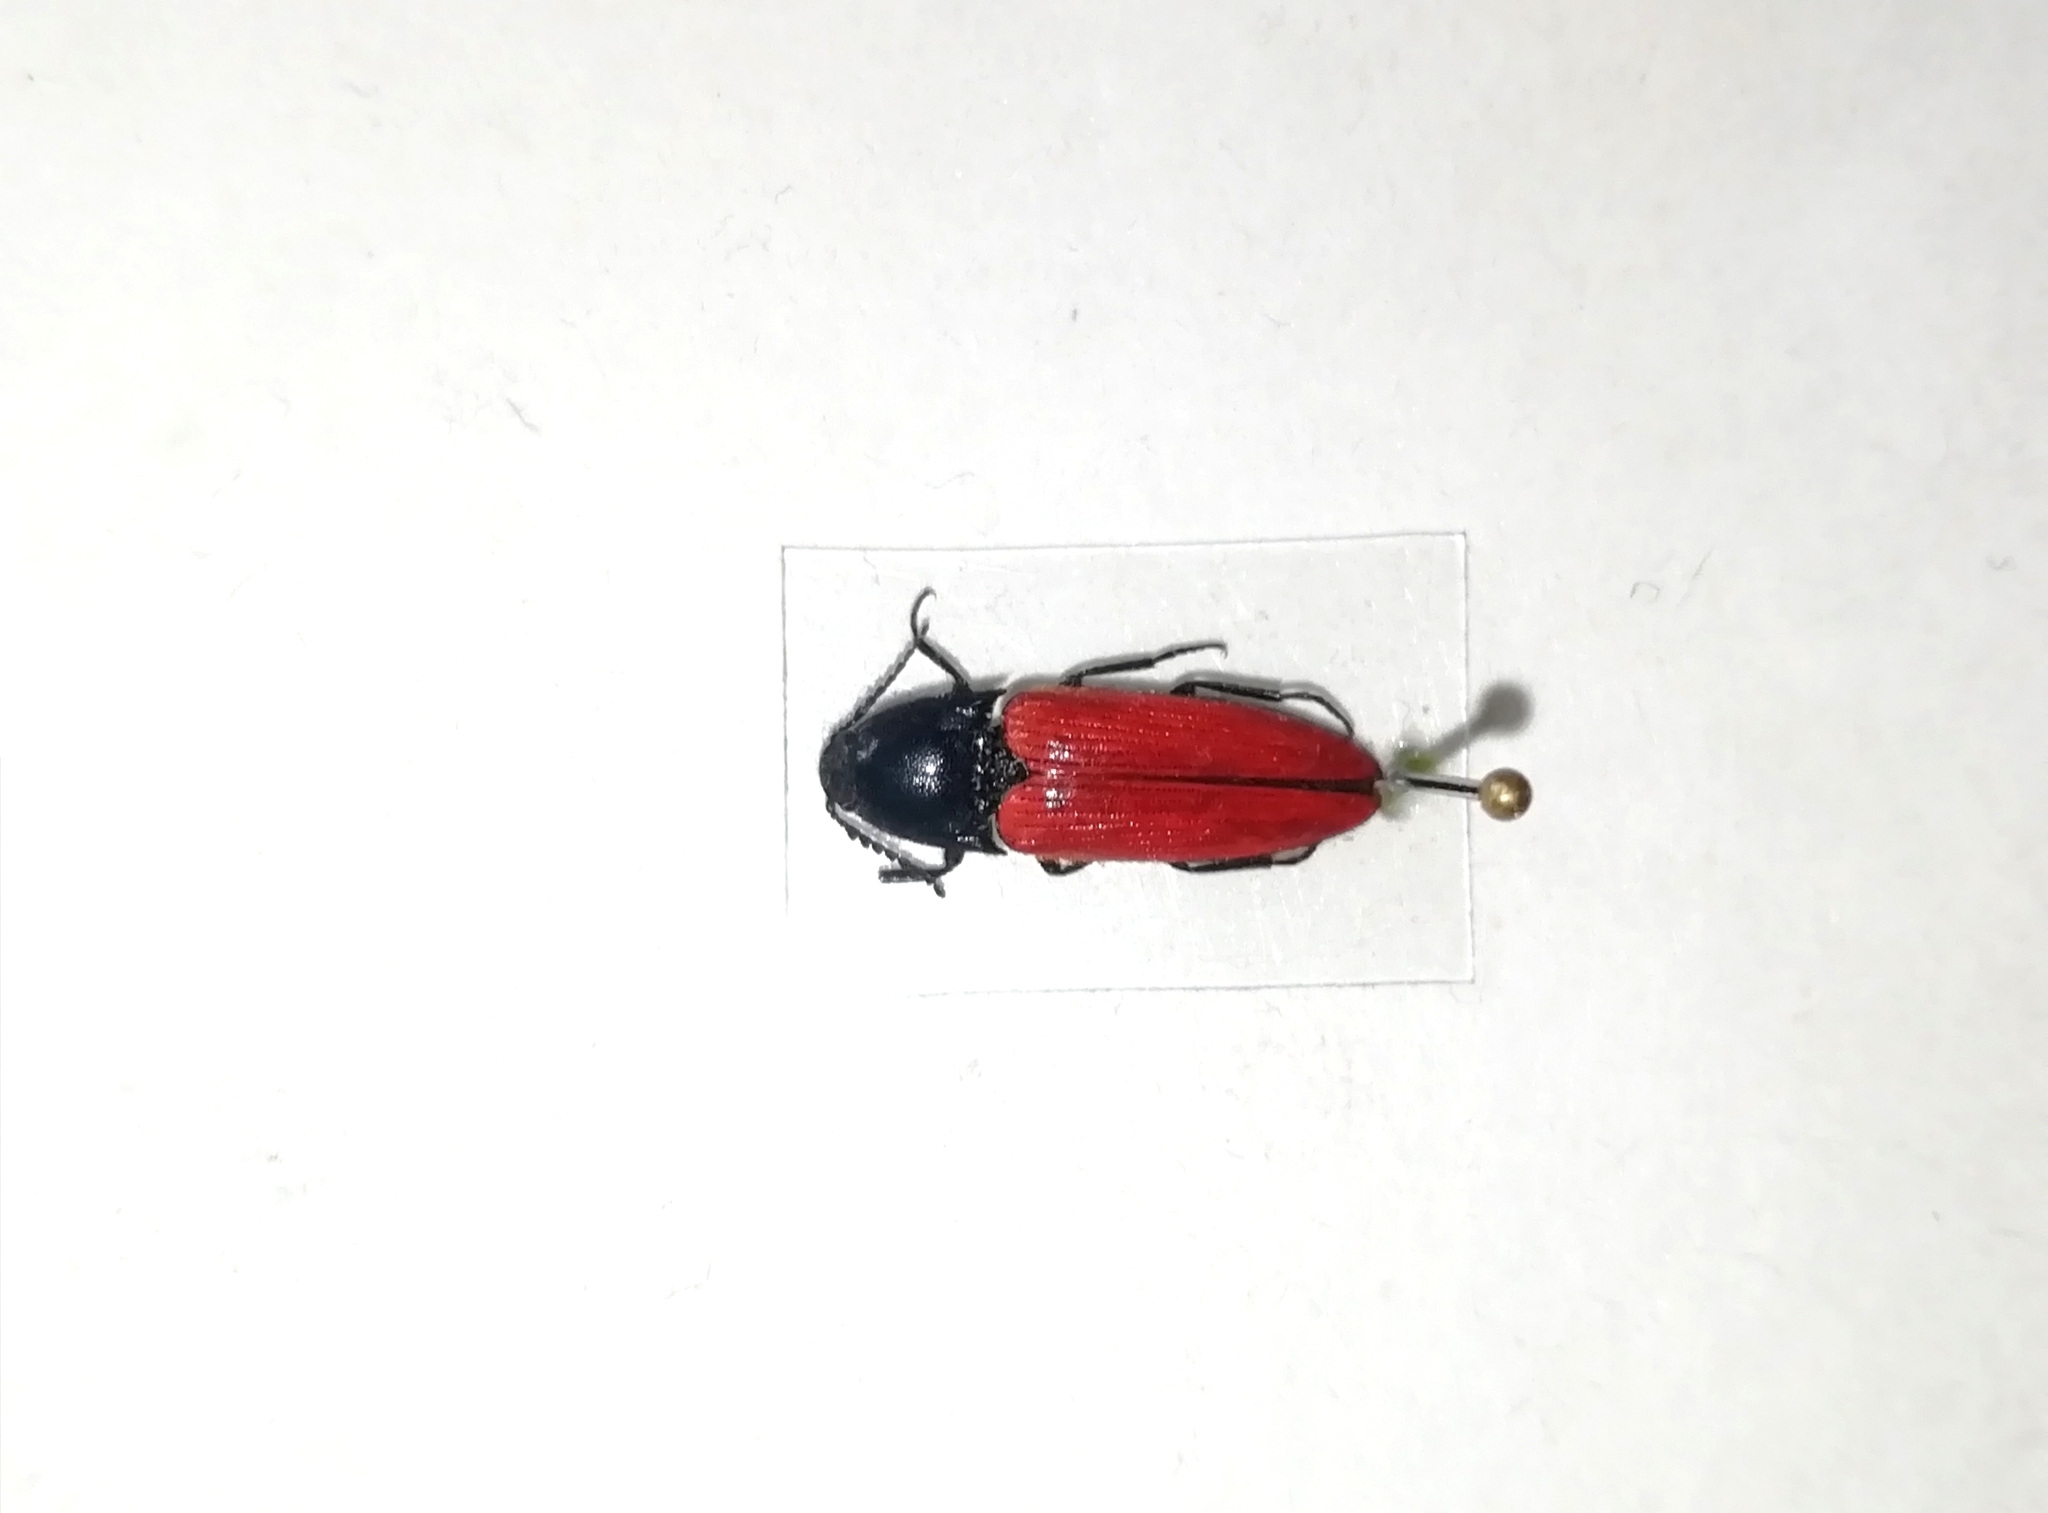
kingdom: Animalia
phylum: Arthropoda
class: Insecta
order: Coleoptera
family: Elateridae
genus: Ampedus
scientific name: Ampedus sanguineus
